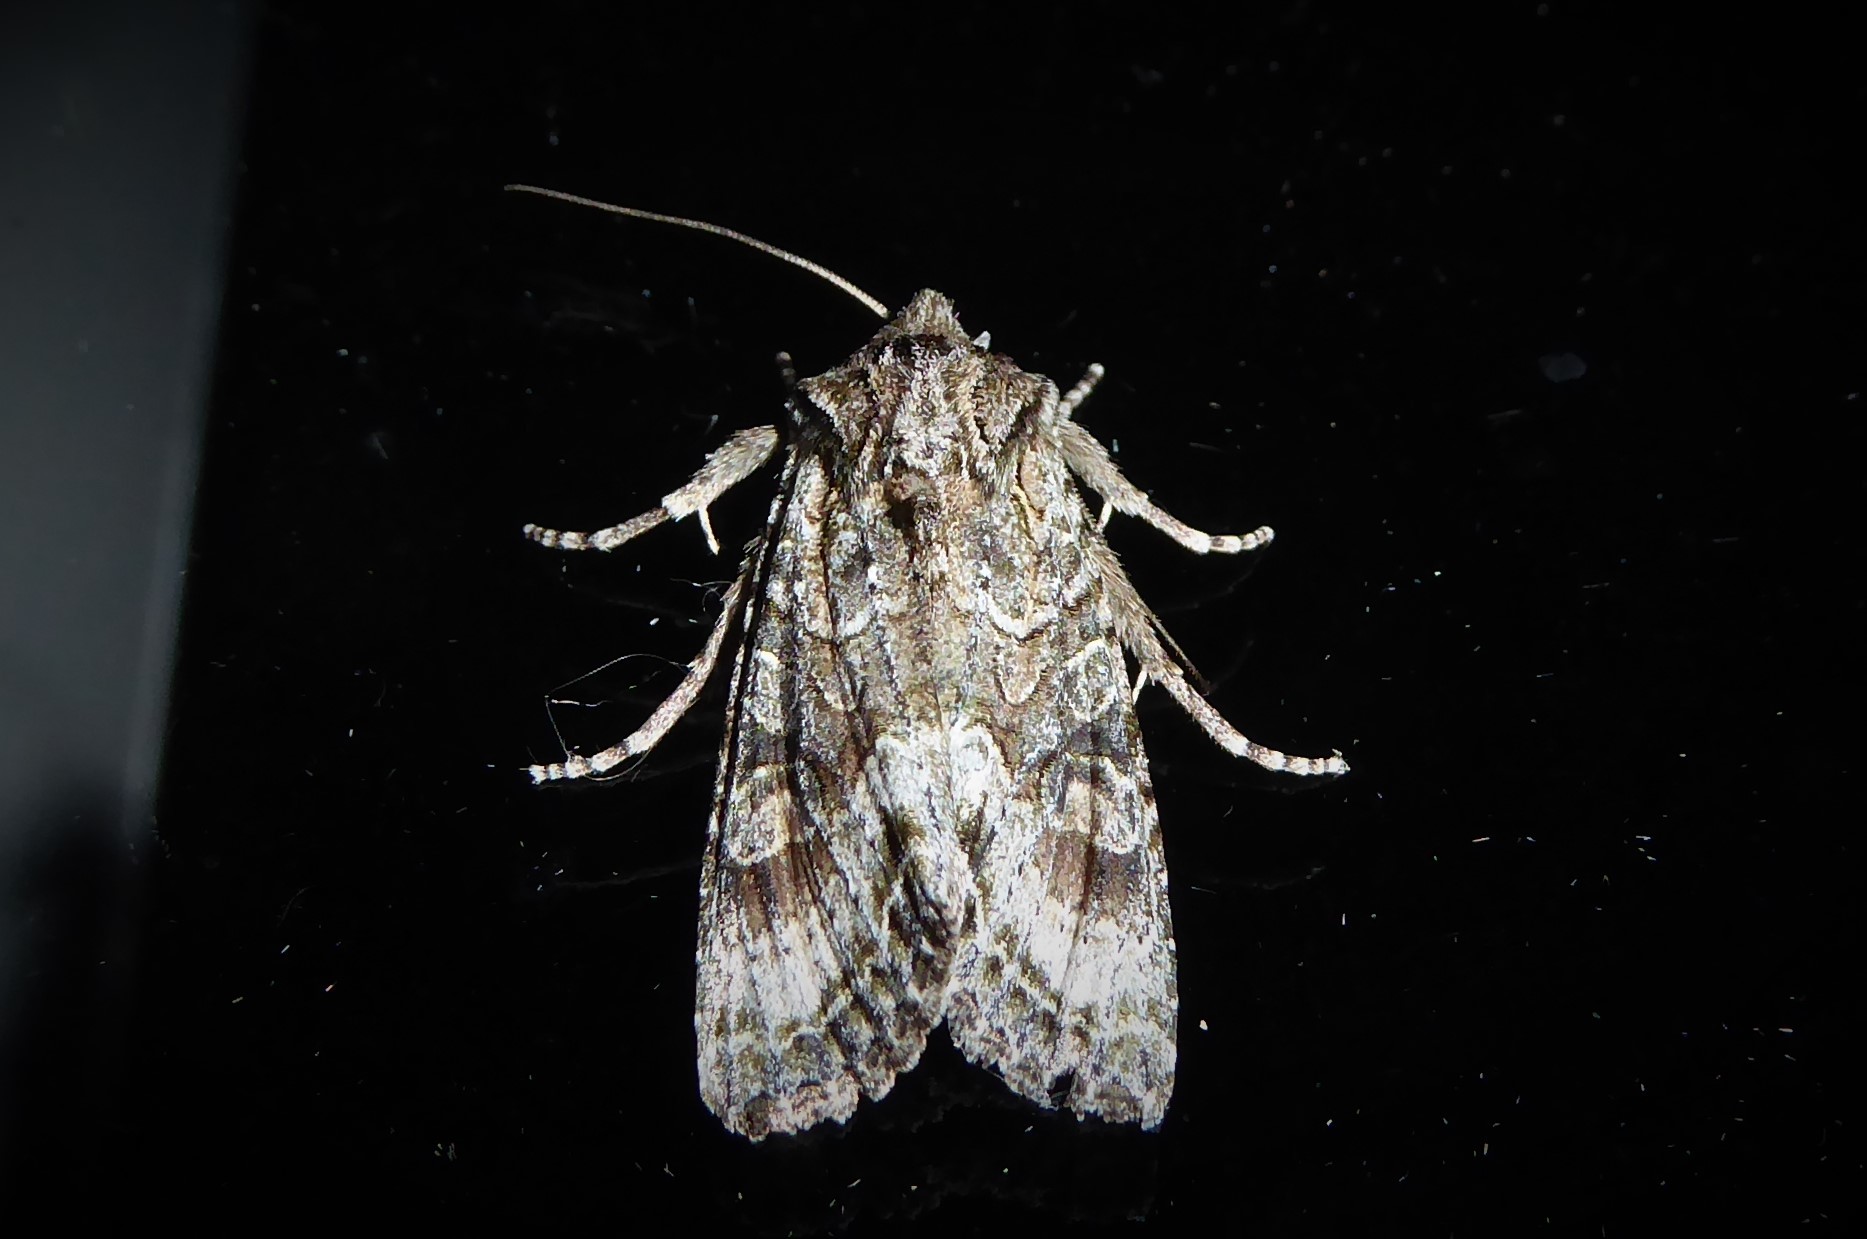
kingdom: Animalia
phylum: Arthropoda
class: Insecta
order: Lepidoptera
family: Noctuidae
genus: Ichneutica
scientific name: Ichneutica mutans
